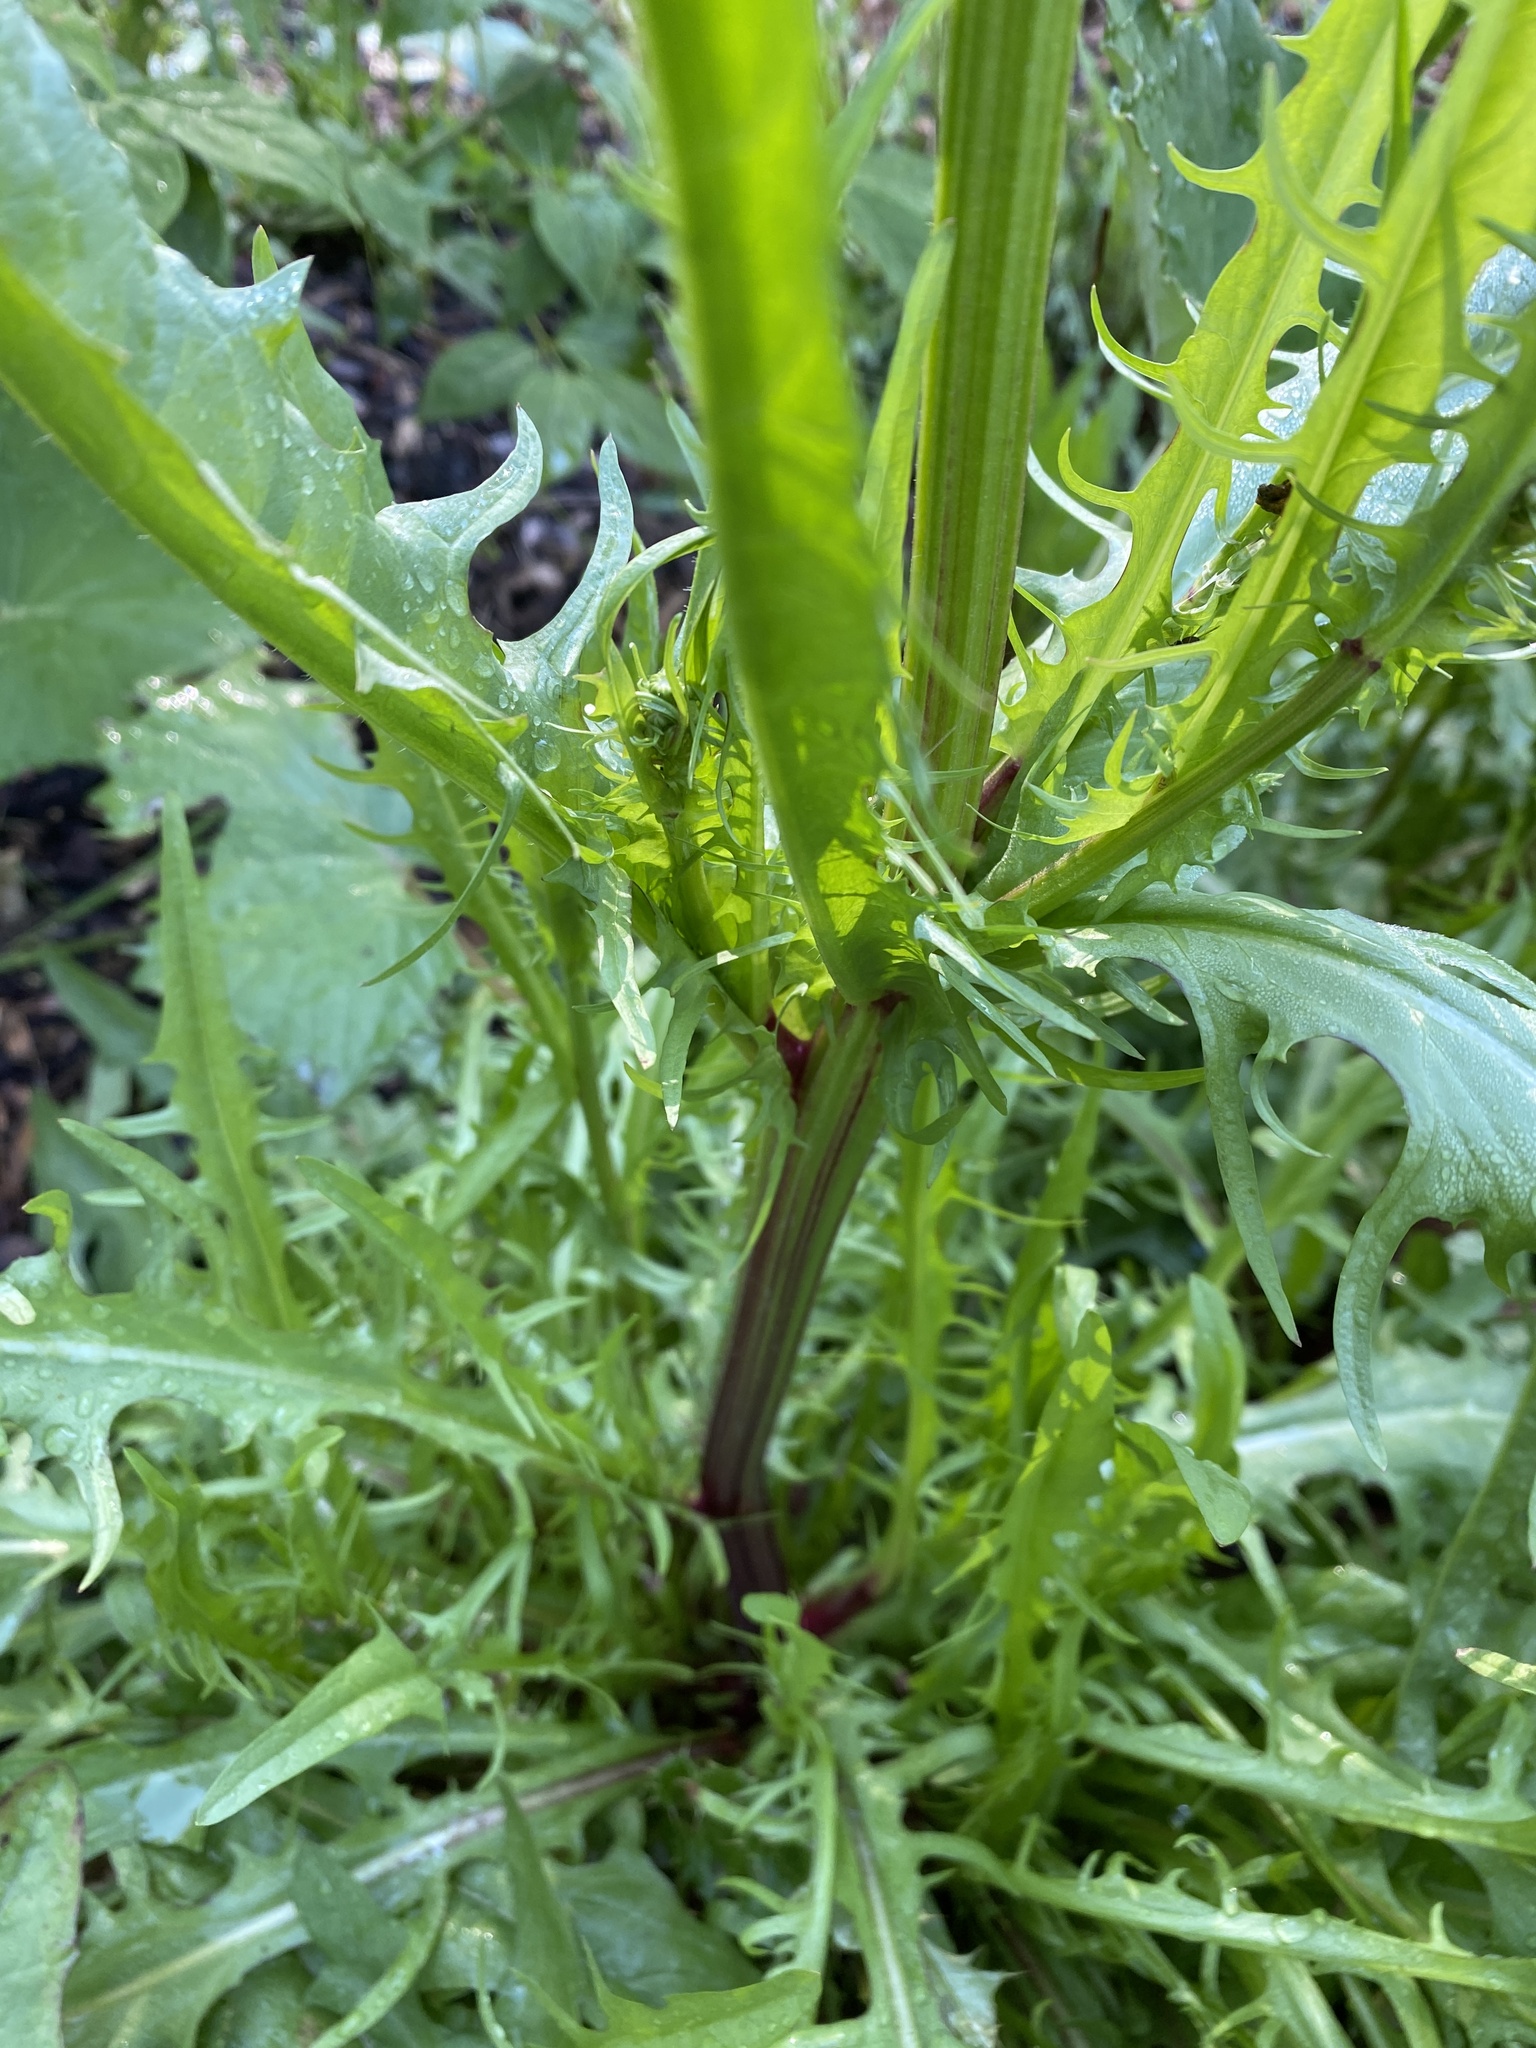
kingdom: Plantae
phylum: Tracheophyta
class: Magnoliopsida
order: Asterales
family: Asteraceae
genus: Crepis
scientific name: Crepis capillaris
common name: Smooth hawksbeard
